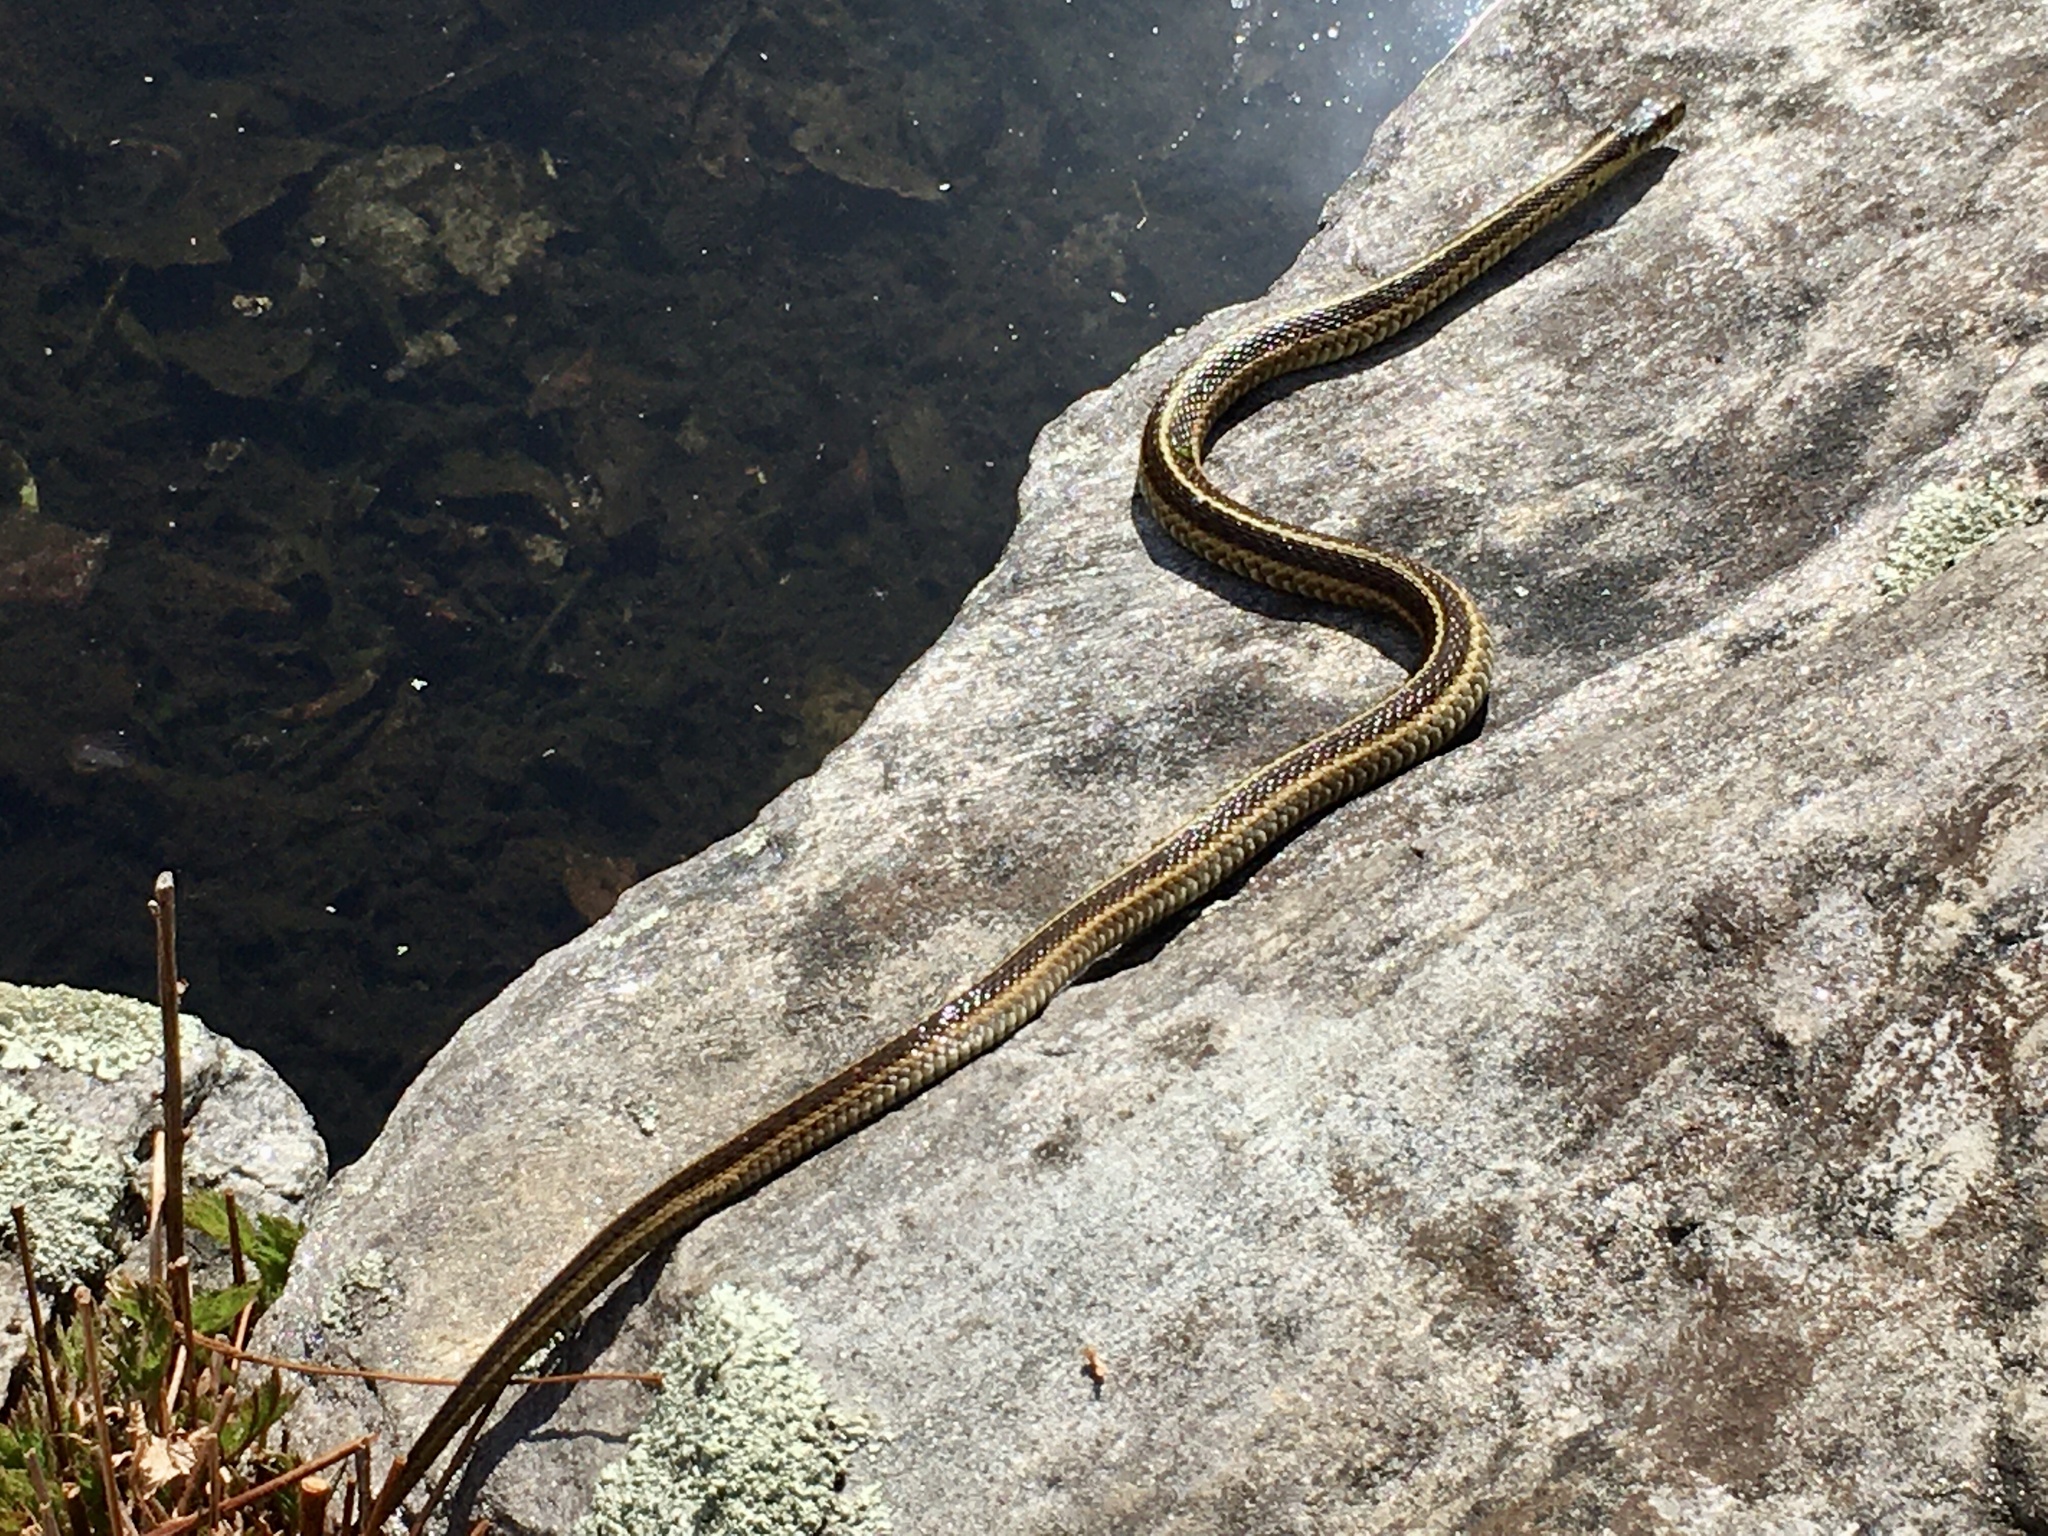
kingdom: Animalia
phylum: Chordata
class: Squamata
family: Colubridae
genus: Thamnophis
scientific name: Thamnophis sirtalis
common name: Common garter snake
